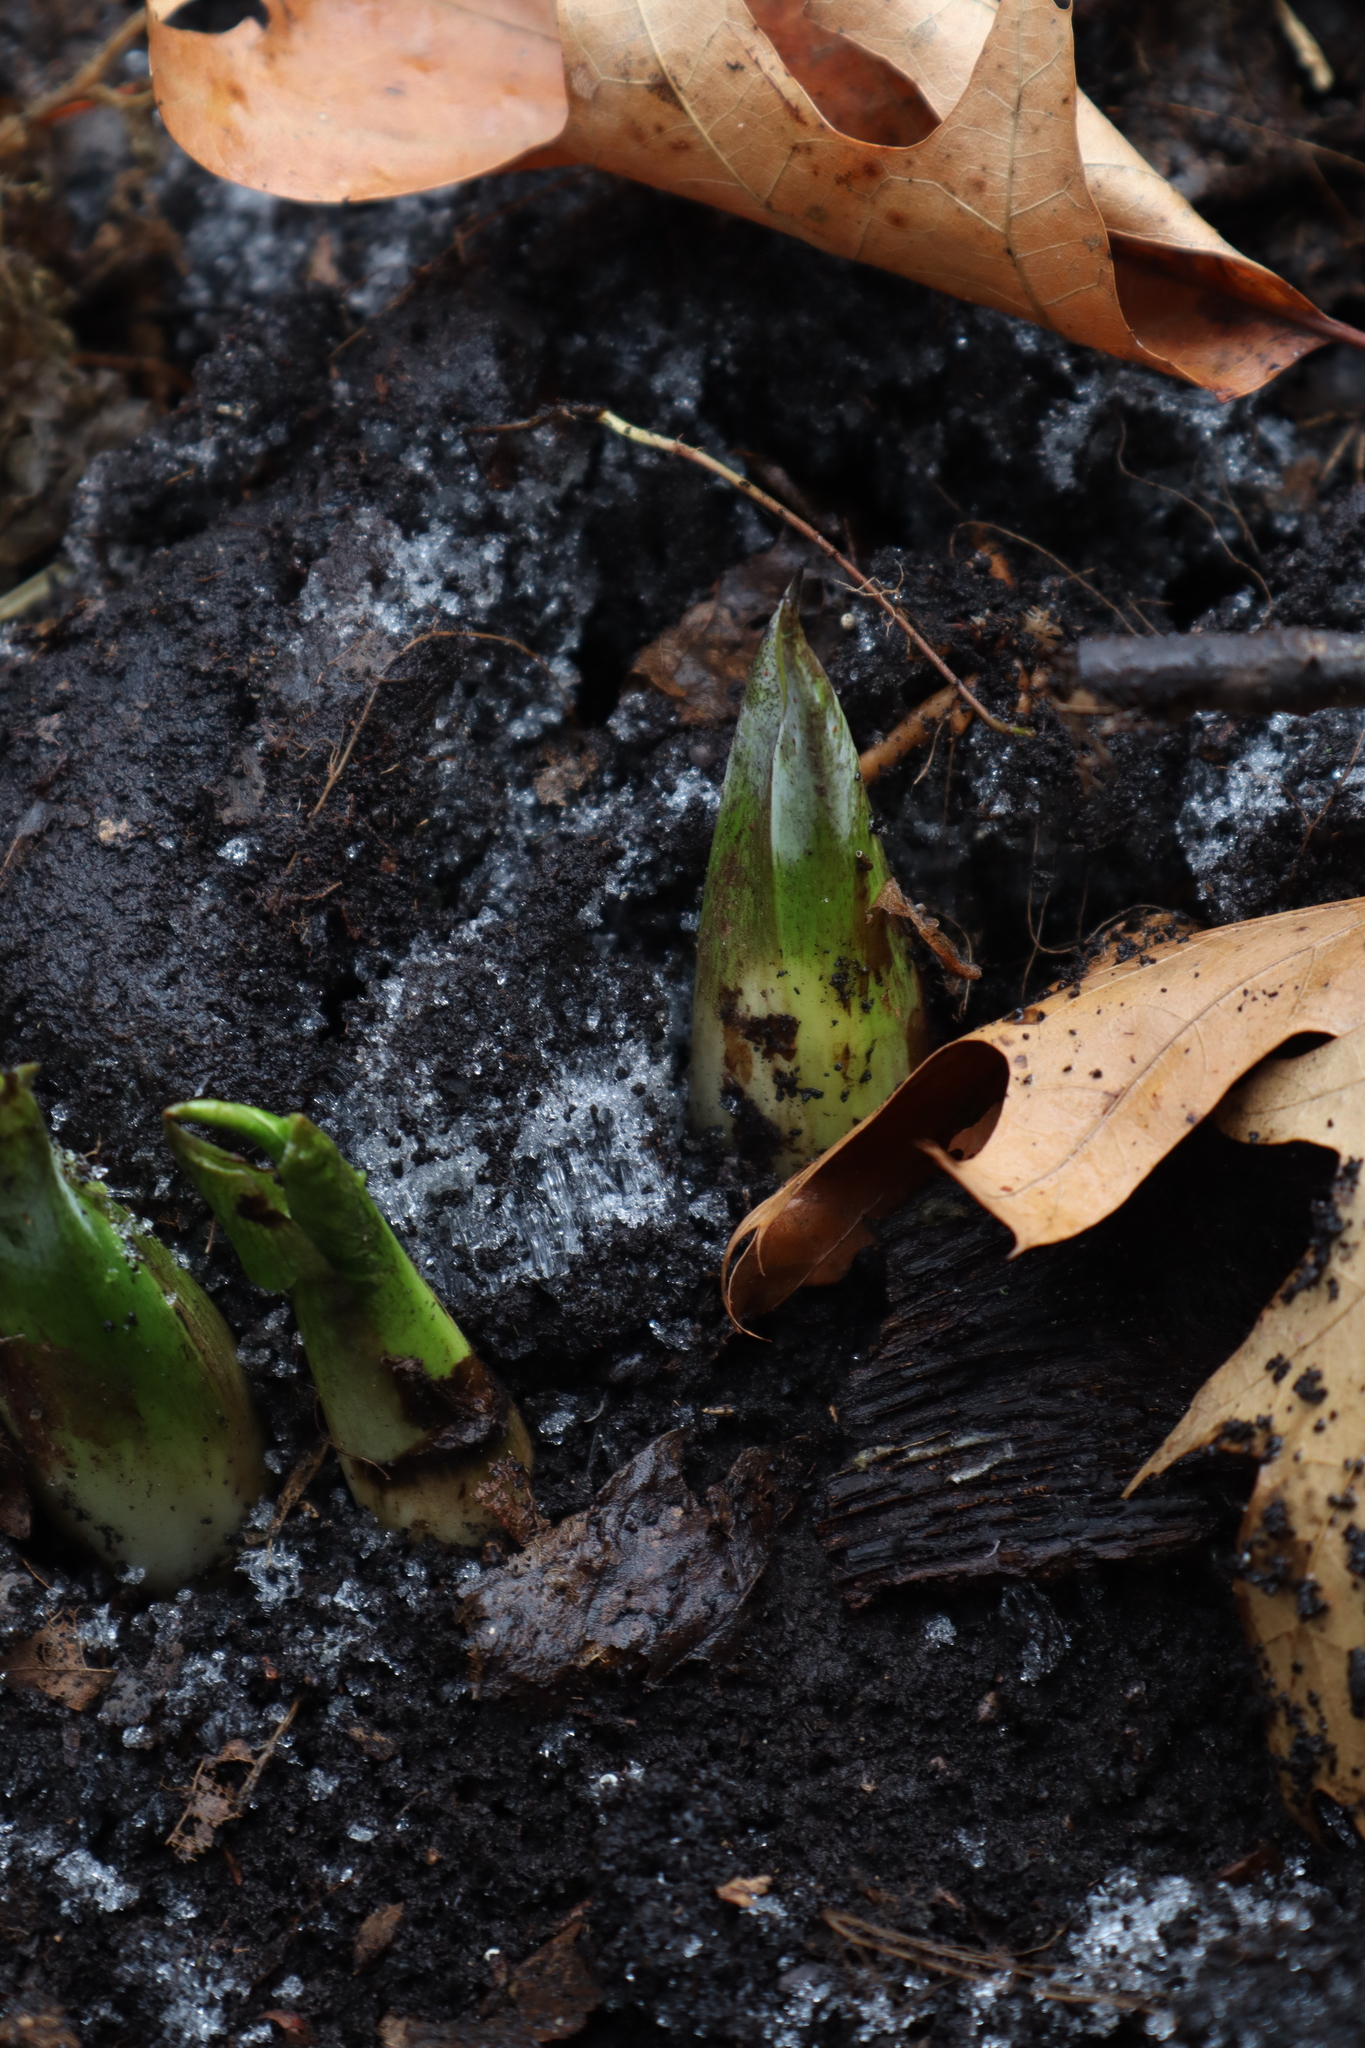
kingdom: Plantae
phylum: Tracheophyta
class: Liliopsida
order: Alismatales
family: Araceae
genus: Symplocarpus
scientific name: Symplocarpus foetidus
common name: Eastern skunk cabbage
